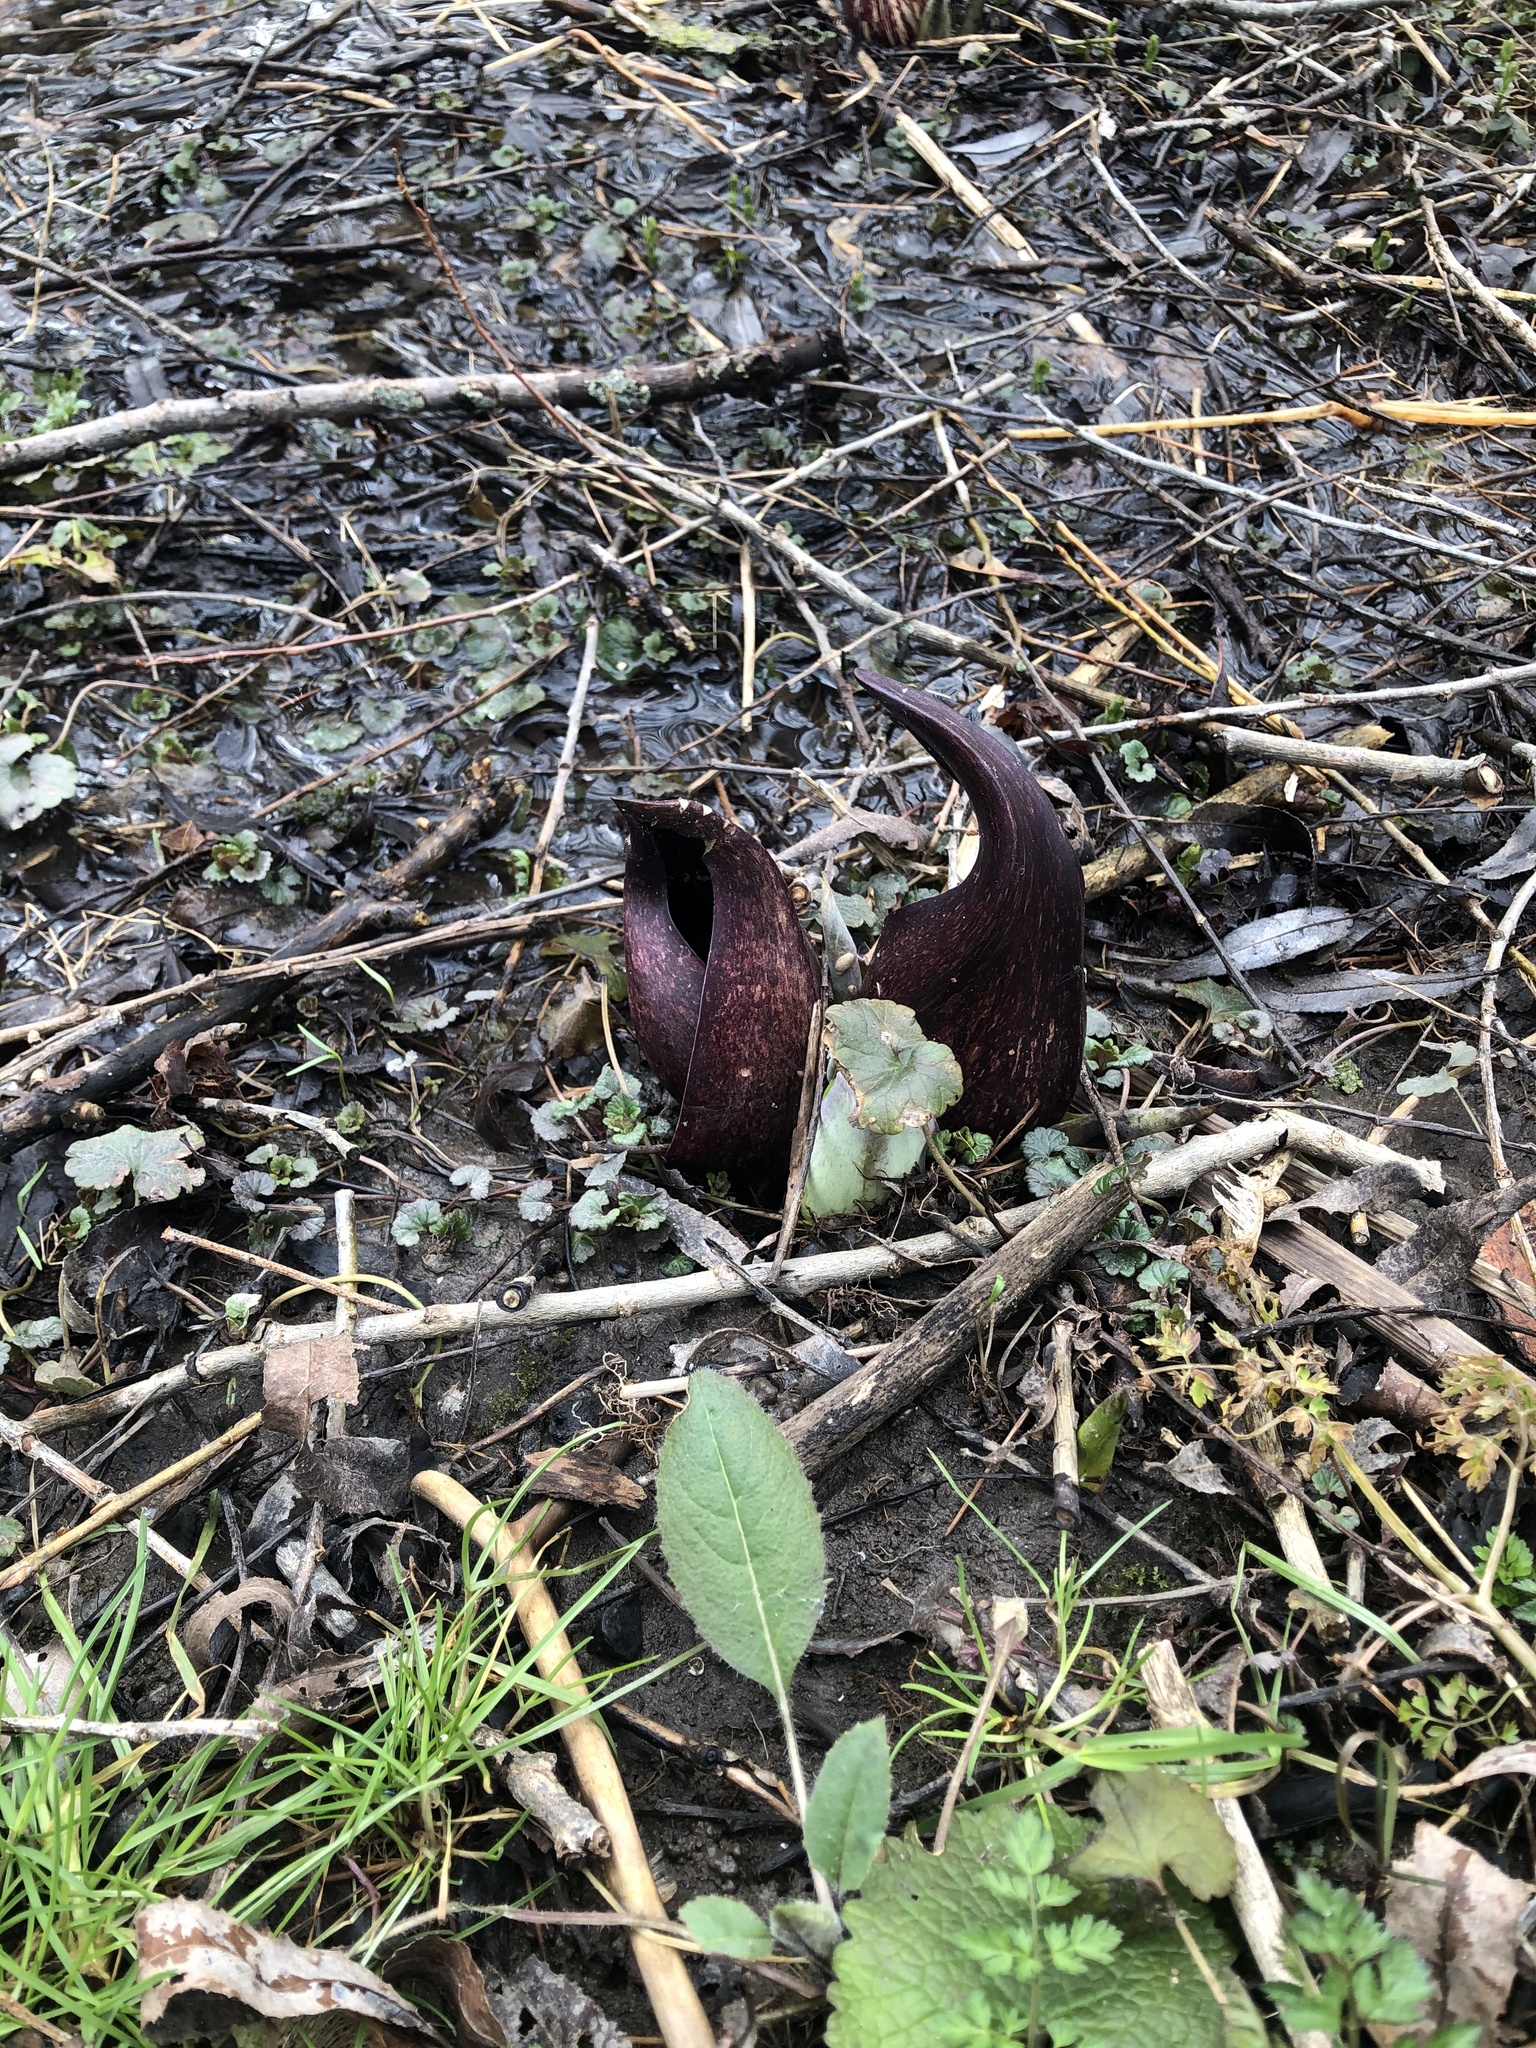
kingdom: Plantae
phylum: Tracheophyta
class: Liliopsida
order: Alismatales
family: Araceae
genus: Symplocarpus
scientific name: Symplocarpus foetidus
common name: Eastern skunk cabbage
